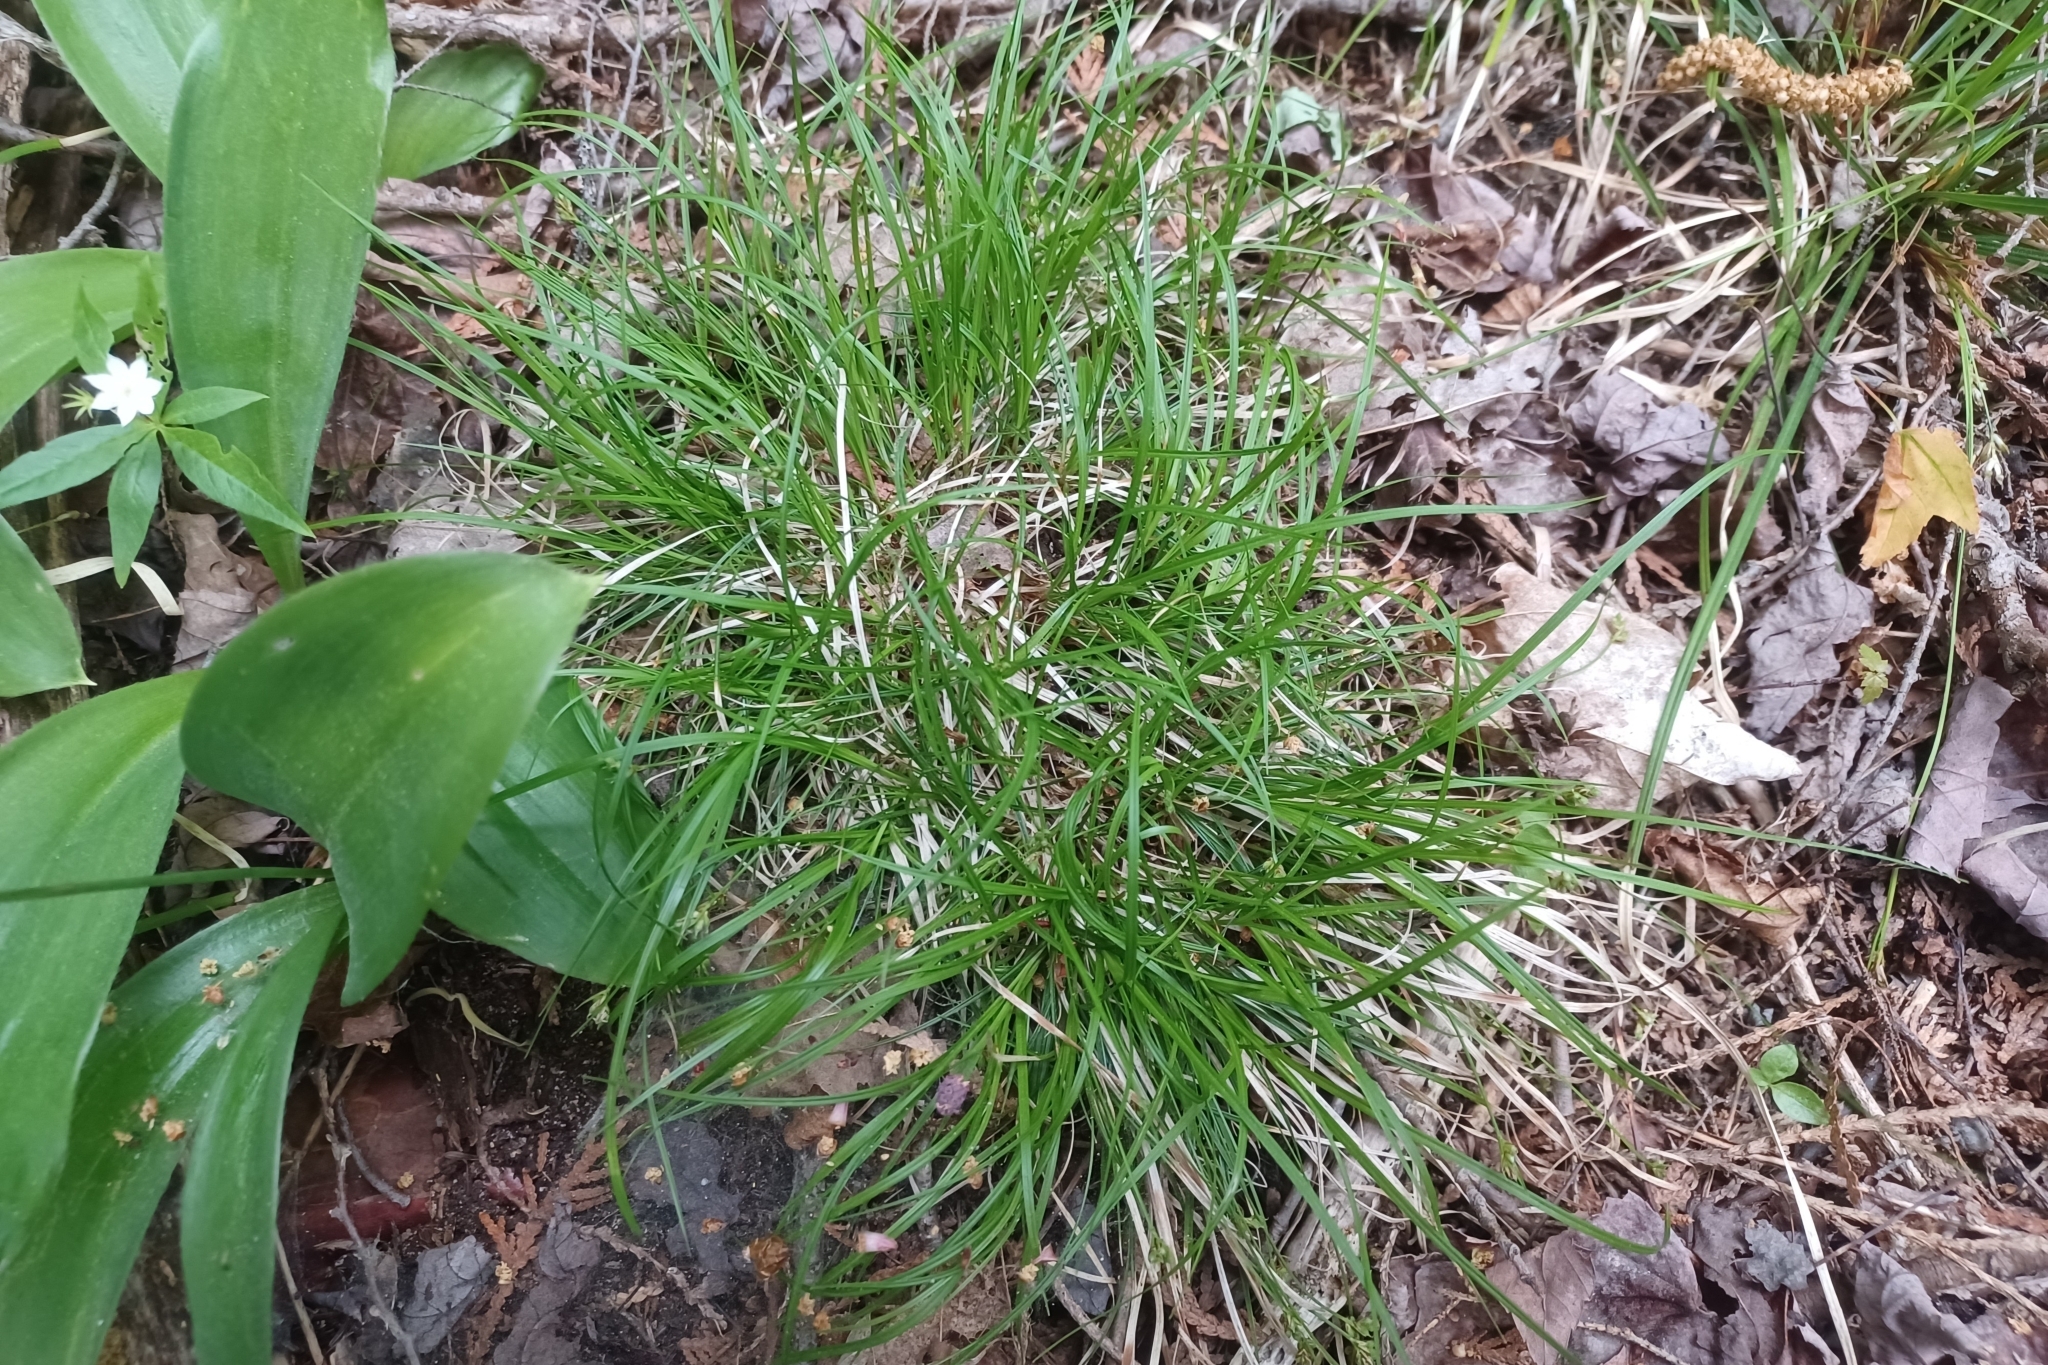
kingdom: Plantae
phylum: Tracheophyta
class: Liliopsida
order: Poales
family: Cyperaceae
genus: Carex
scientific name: Carex deflexa
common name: Bent northern sedge
